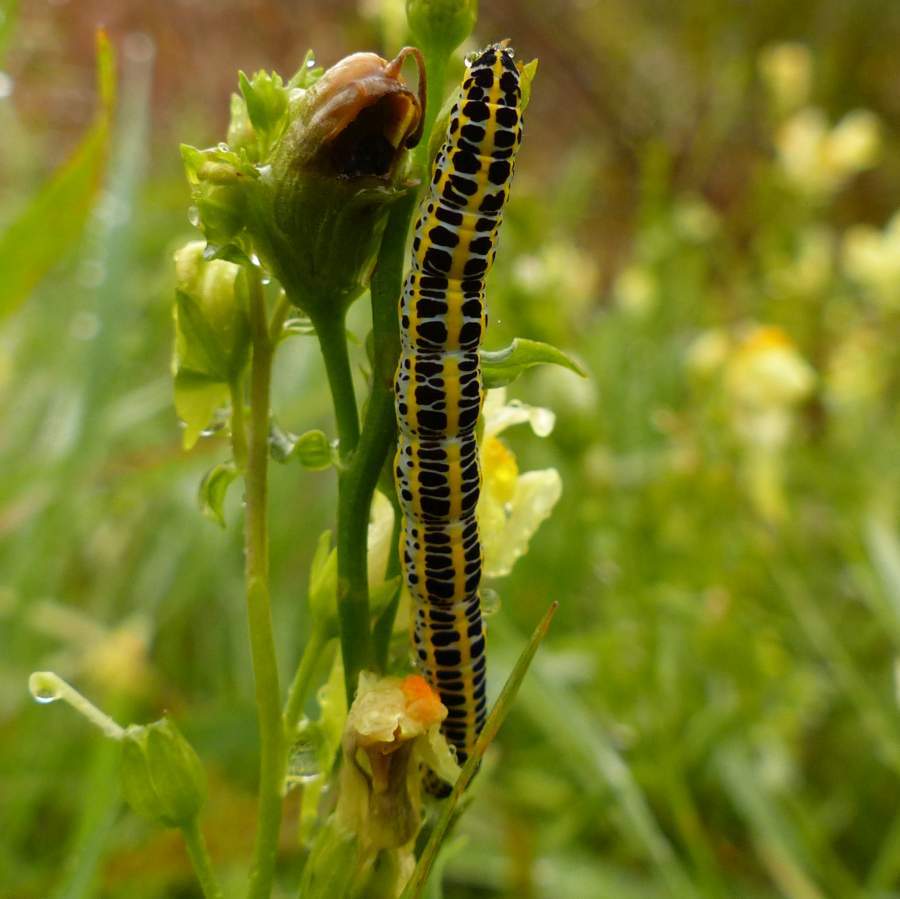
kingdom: Animalia
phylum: Arthropoda
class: Insecta
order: Lepidoptera
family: Noctuidae
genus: Calophasia
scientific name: Calophasia lunula
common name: Toadflax brocade
